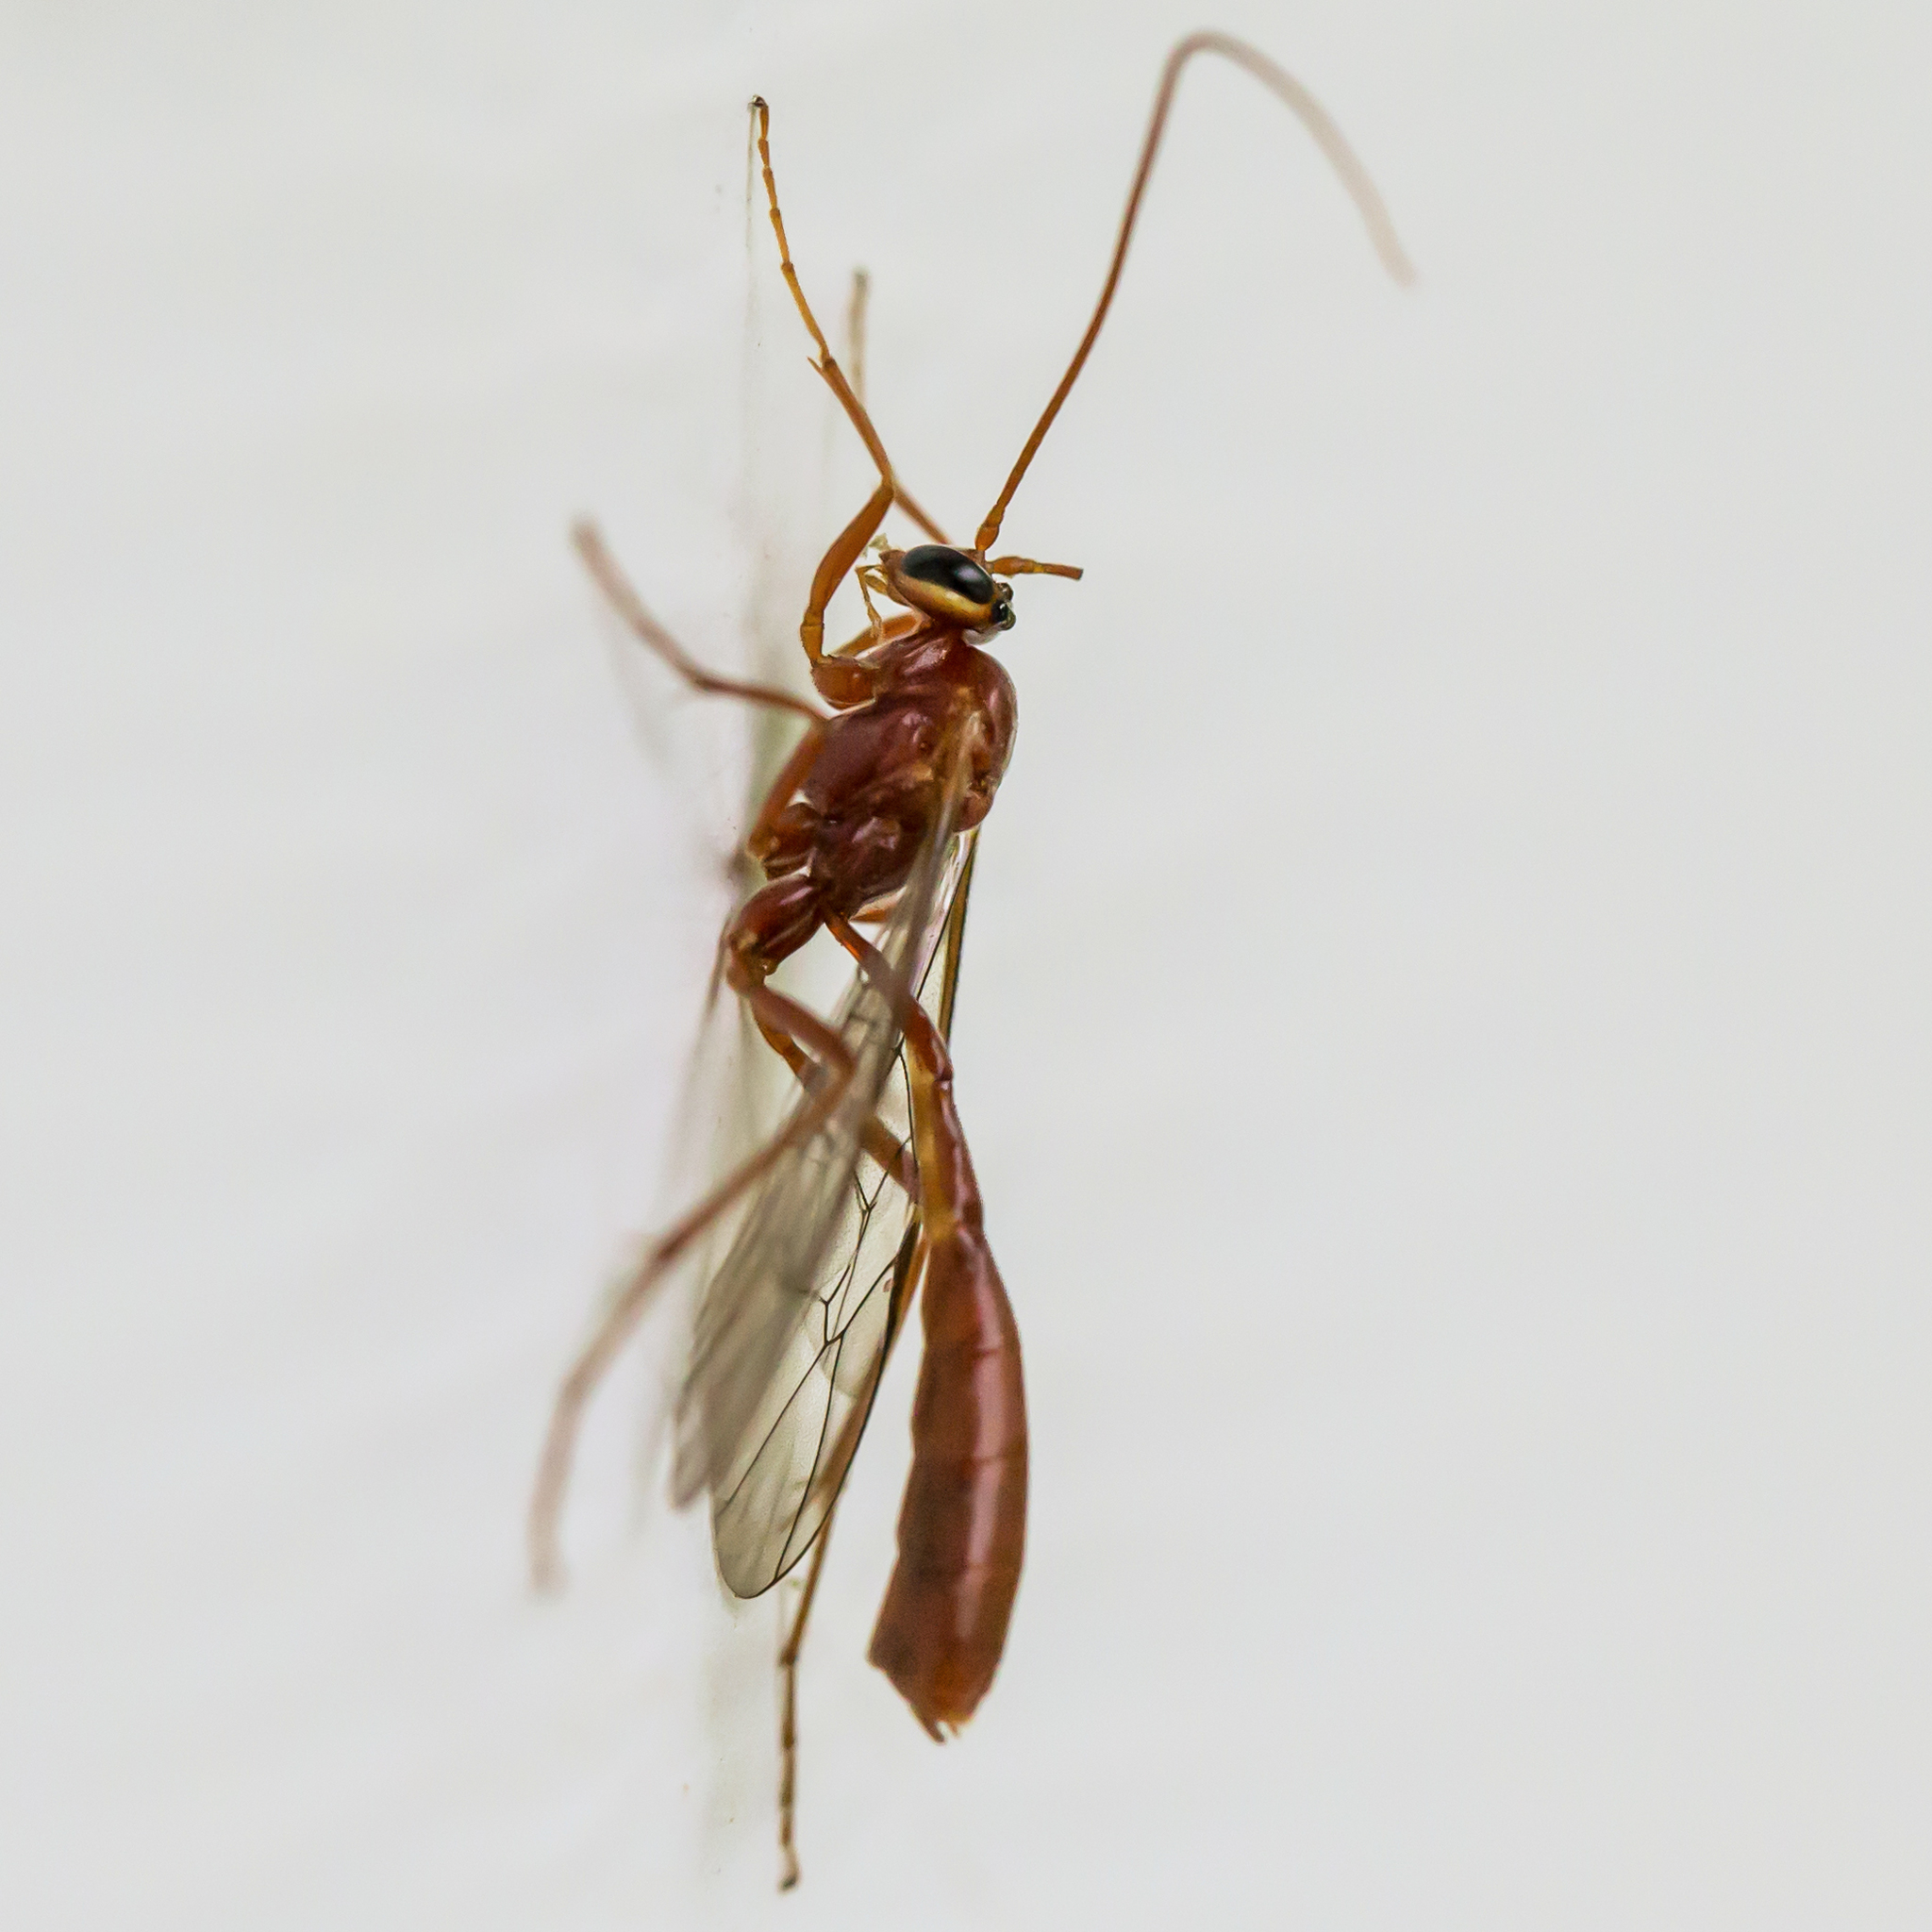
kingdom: Animalia
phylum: Arthropoda
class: Insecta
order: Hymenoptera
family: Ichneumonidae
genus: Ophion
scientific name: Ophion
